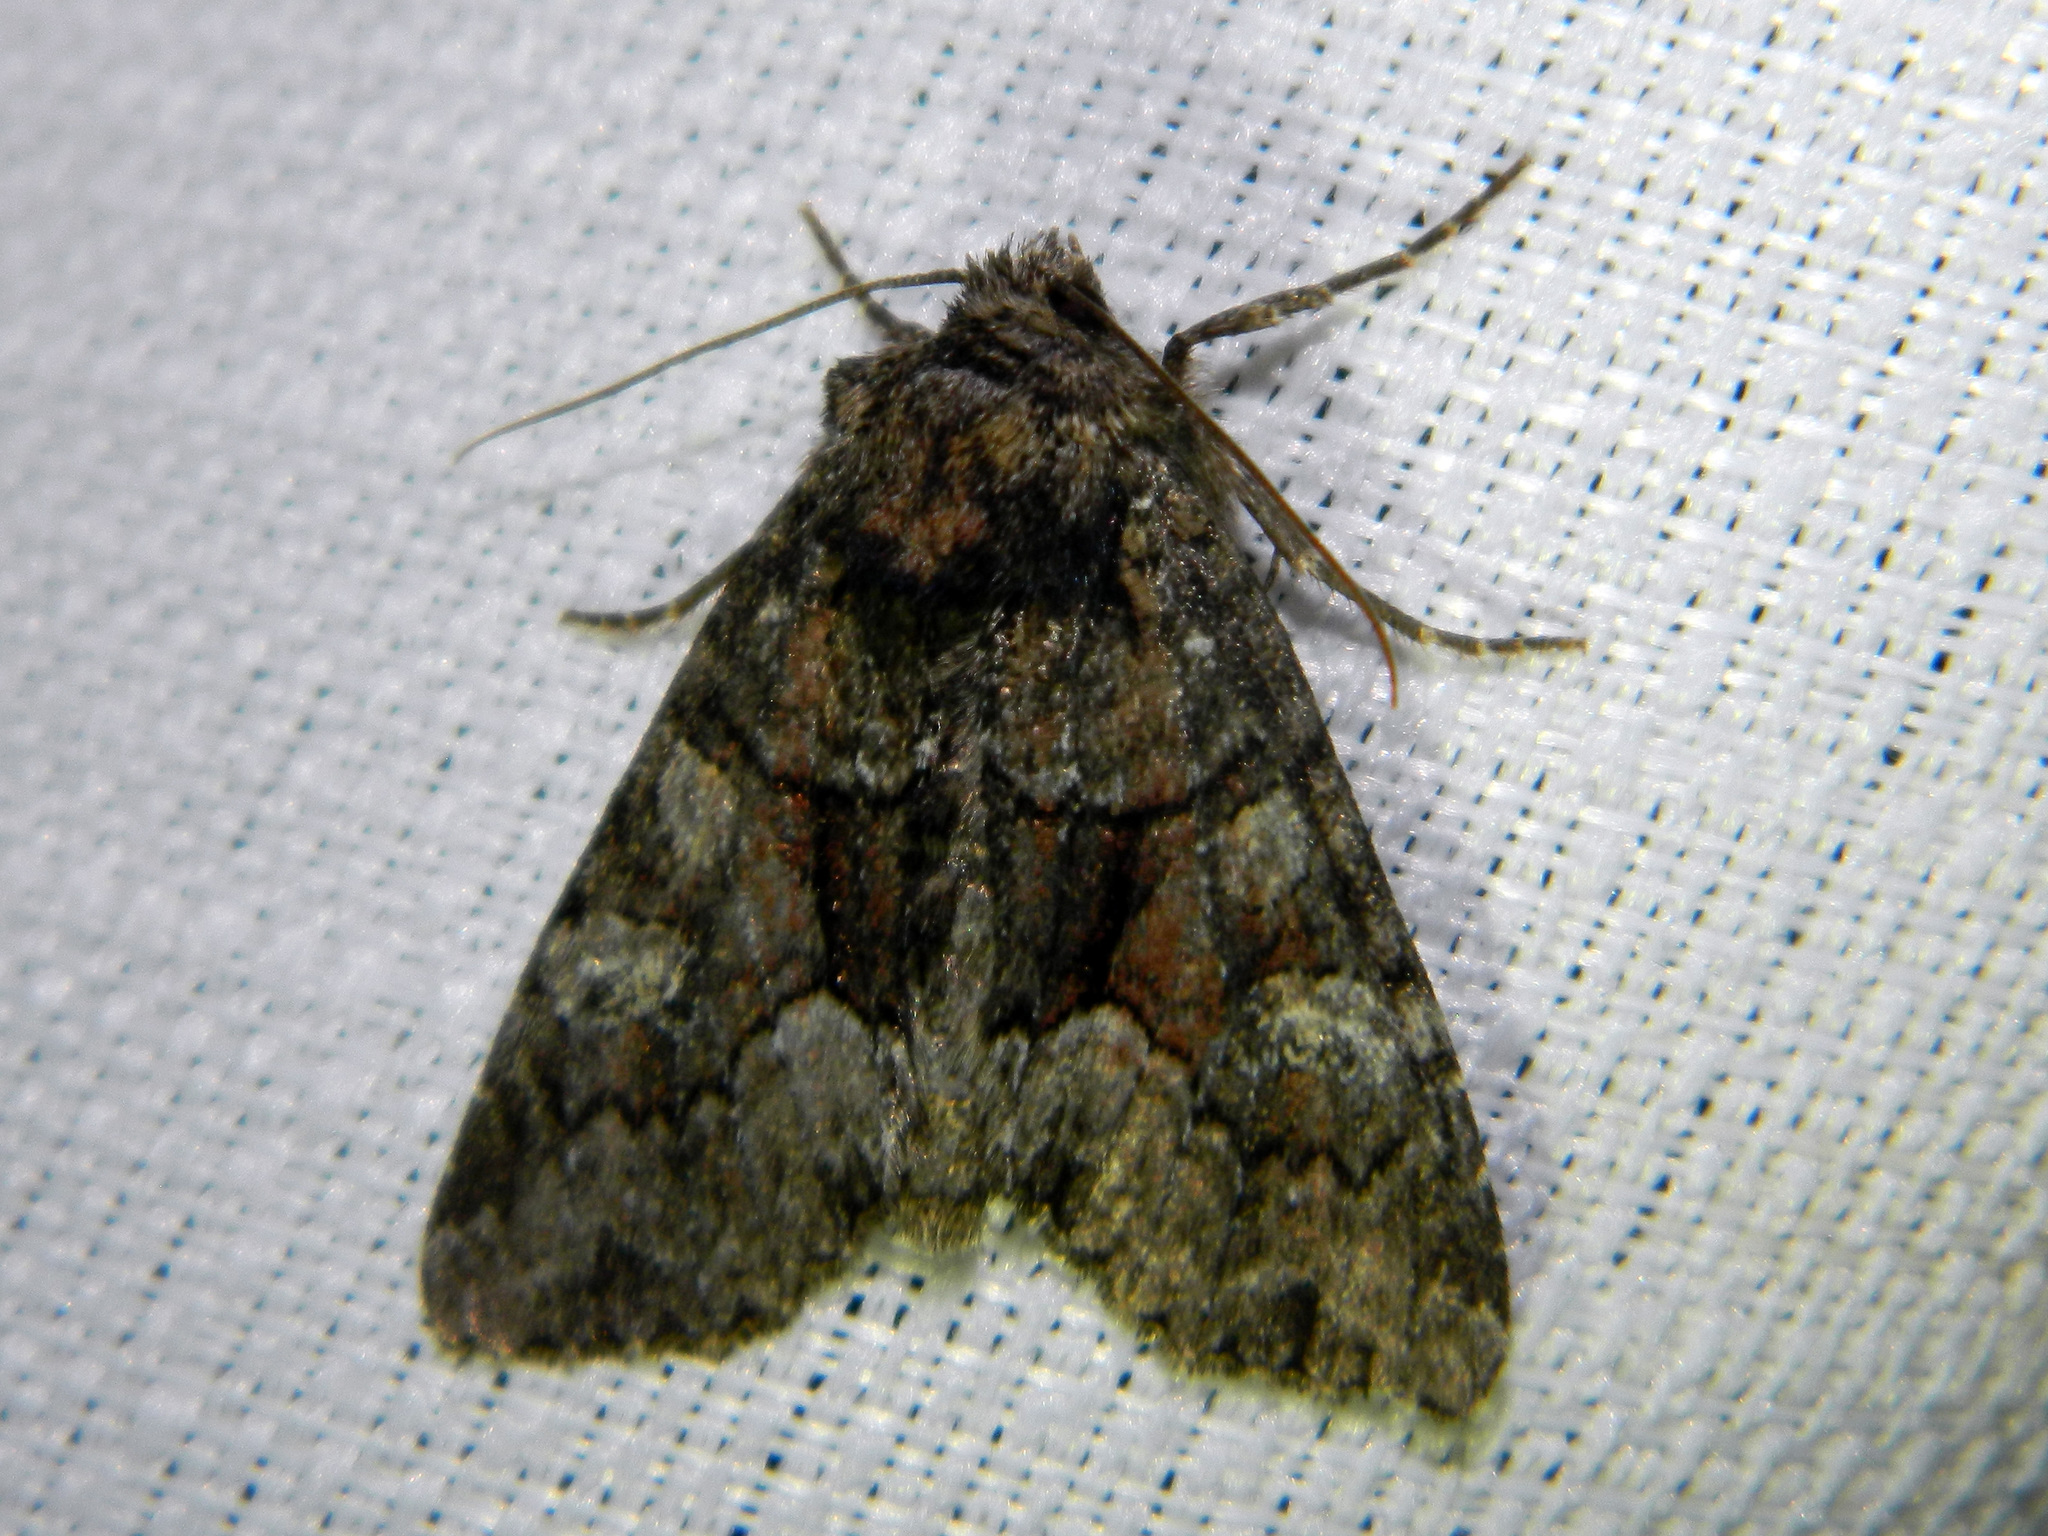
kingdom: Animalia
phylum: Arthropoda
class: Insecta
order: Lepidoptera
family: Noctuidae
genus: Fishia
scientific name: Fishia illocata
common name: Wandering brocade moth
